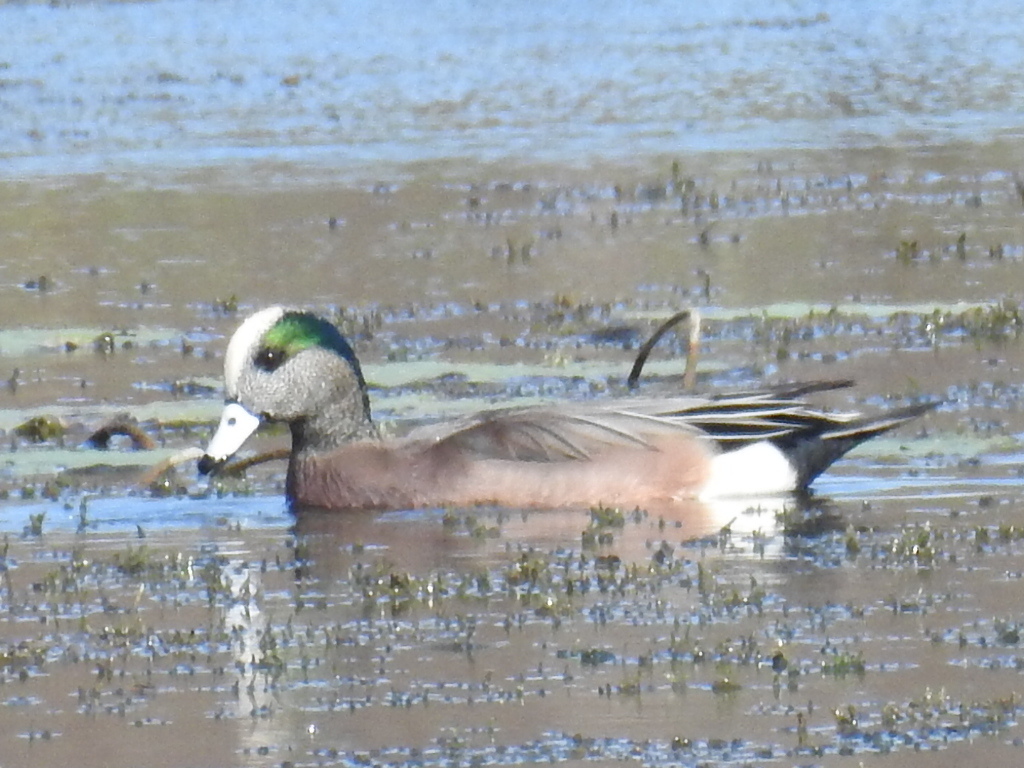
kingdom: Animalia
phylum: Chordata
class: Aves
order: Anseriformes
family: Anatidae
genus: Mareca
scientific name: Mareca americana
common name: American wigeon
